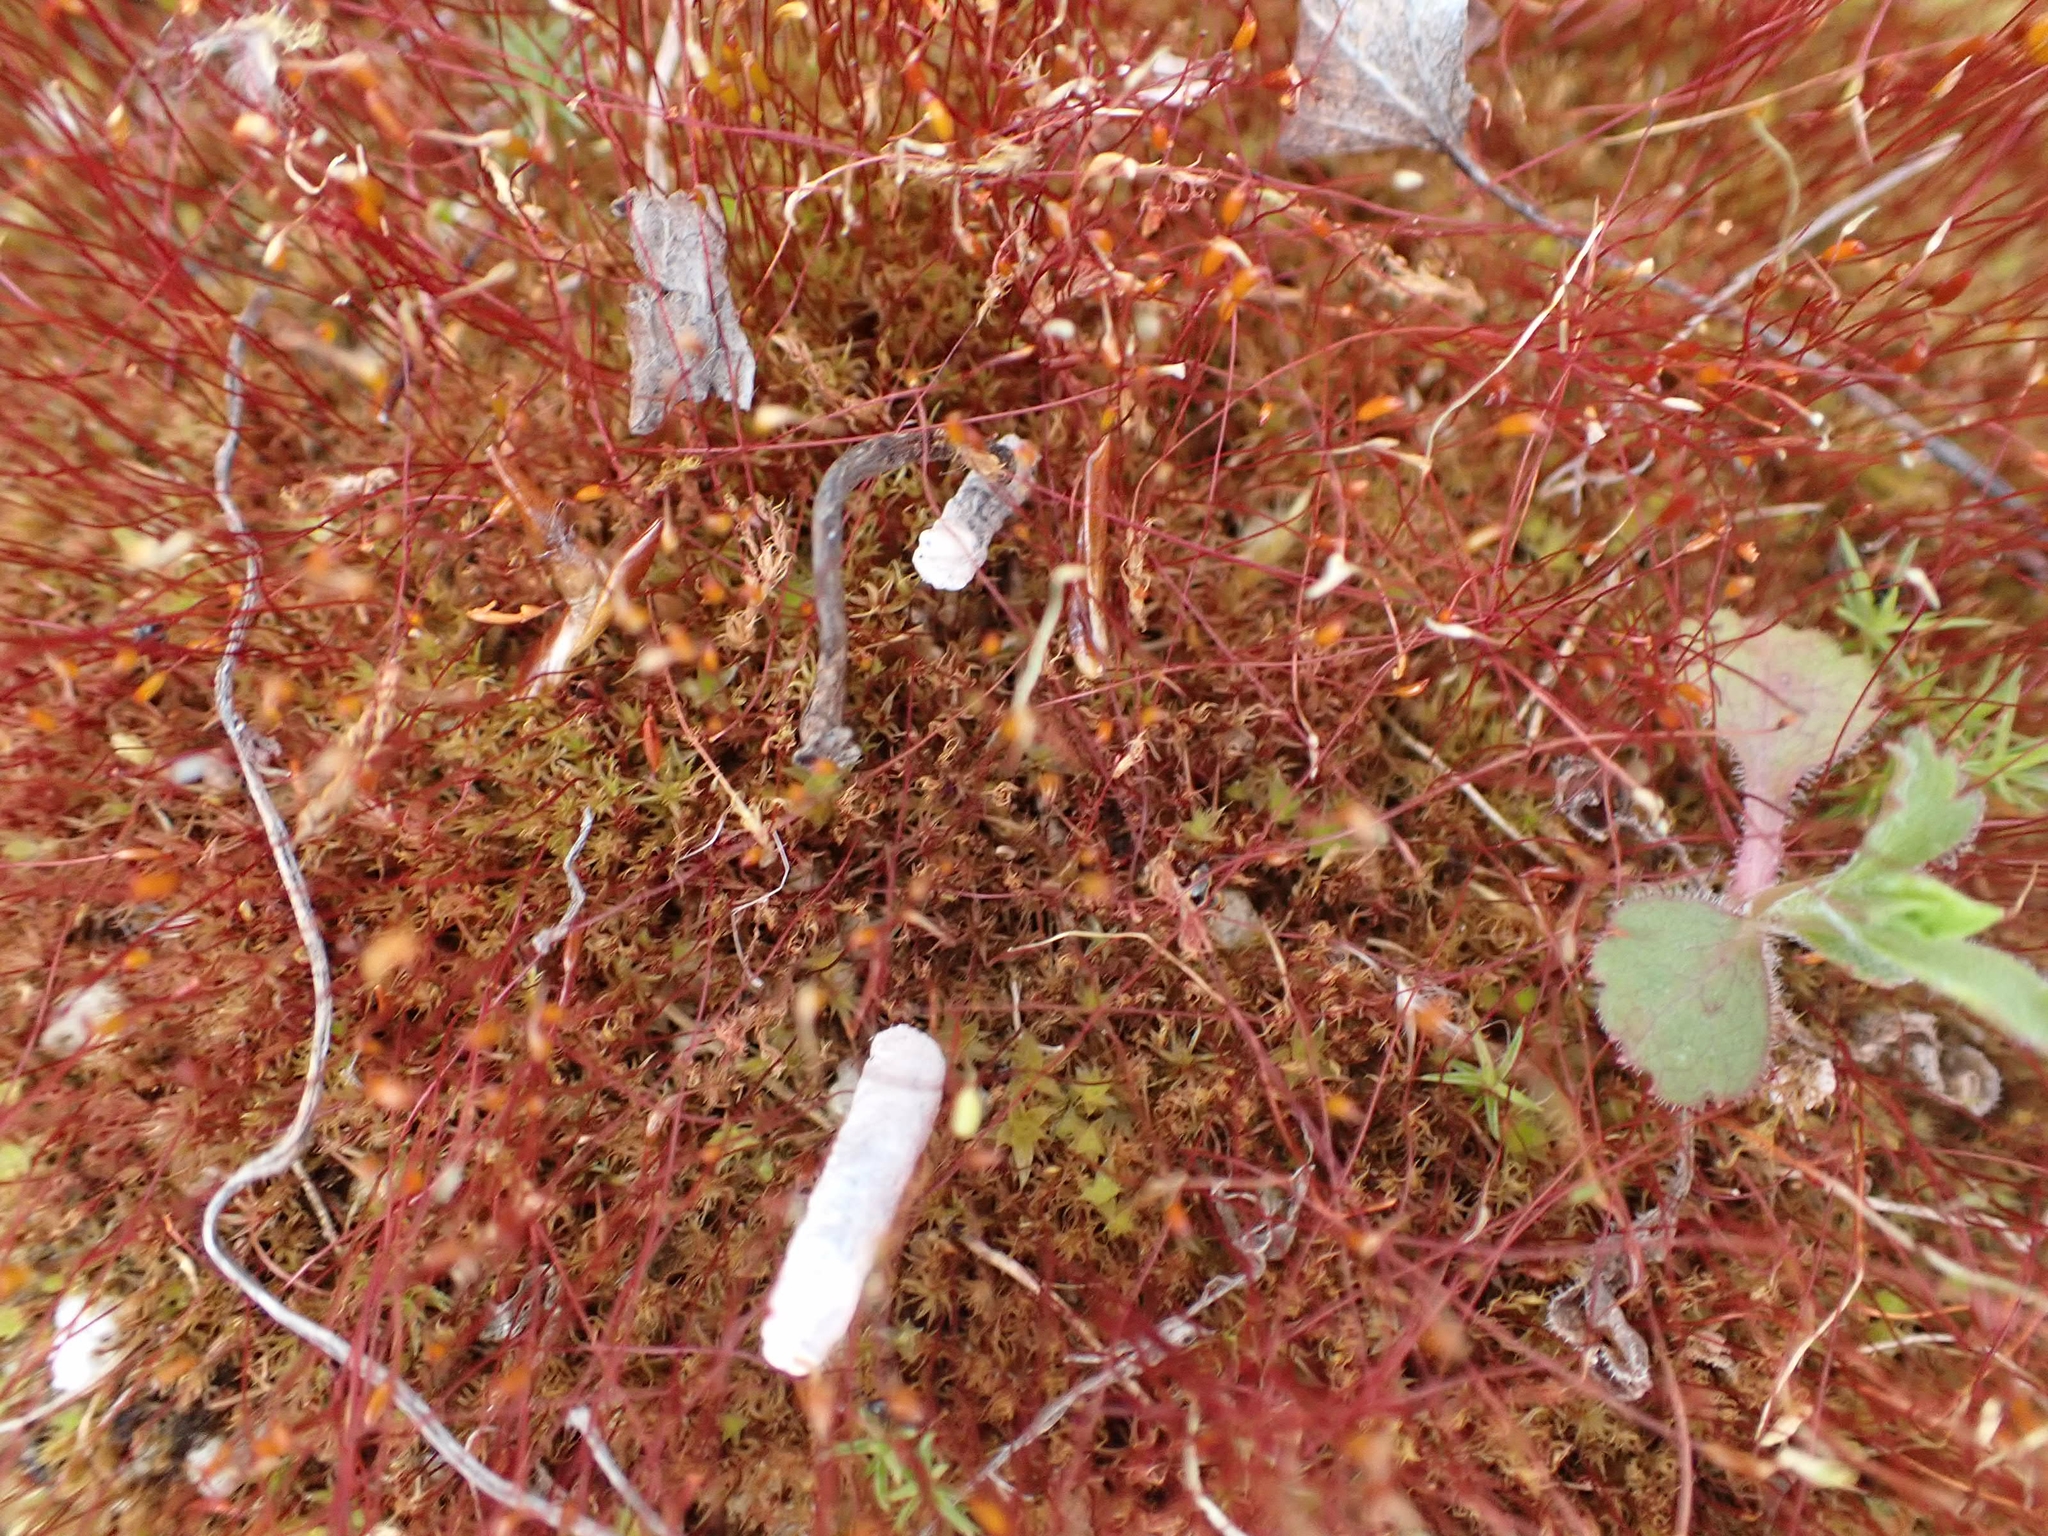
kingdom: Plantae
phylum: Bryophyta
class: Bryopsida
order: Dicranales
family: Ditrichaceae
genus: Ceratodon
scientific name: Ceratodon purpureus
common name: Redshank
